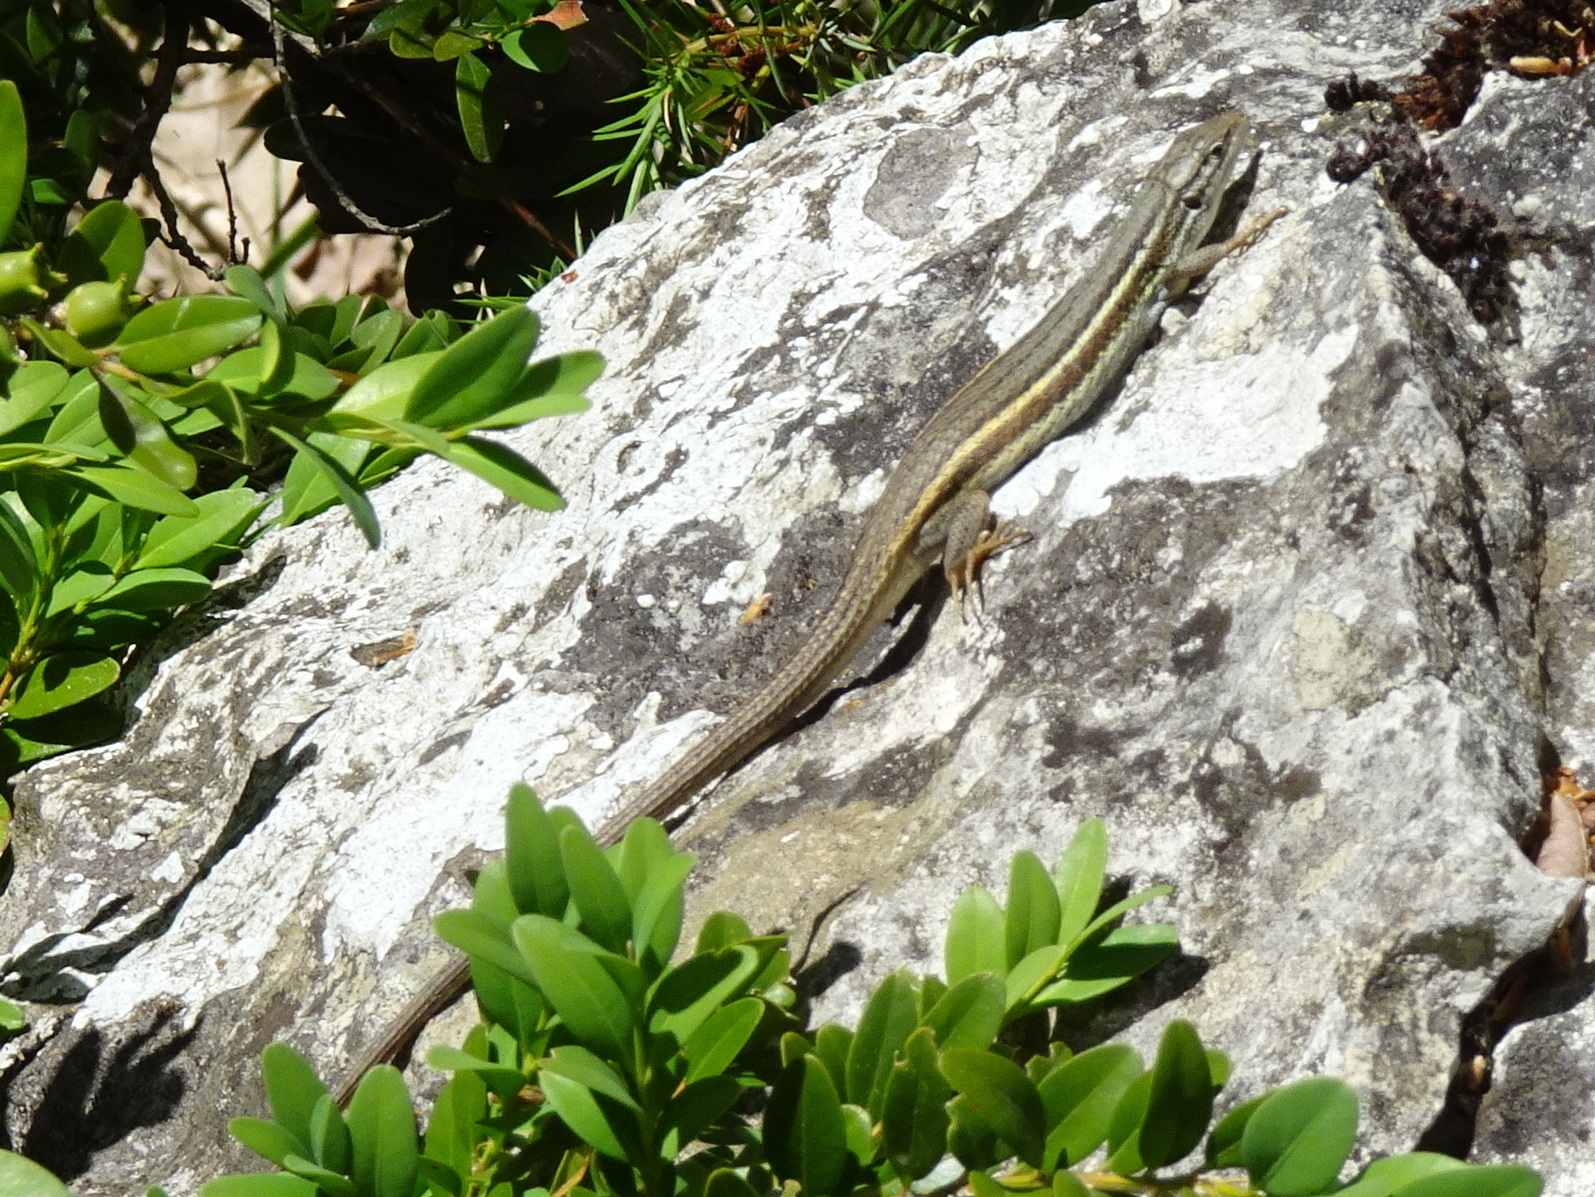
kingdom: Animalia
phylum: Chordata
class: Squamata
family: Lacertidae
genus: Psammodromus
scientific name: Psammodromus algirus
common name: Algerian psammodromus
